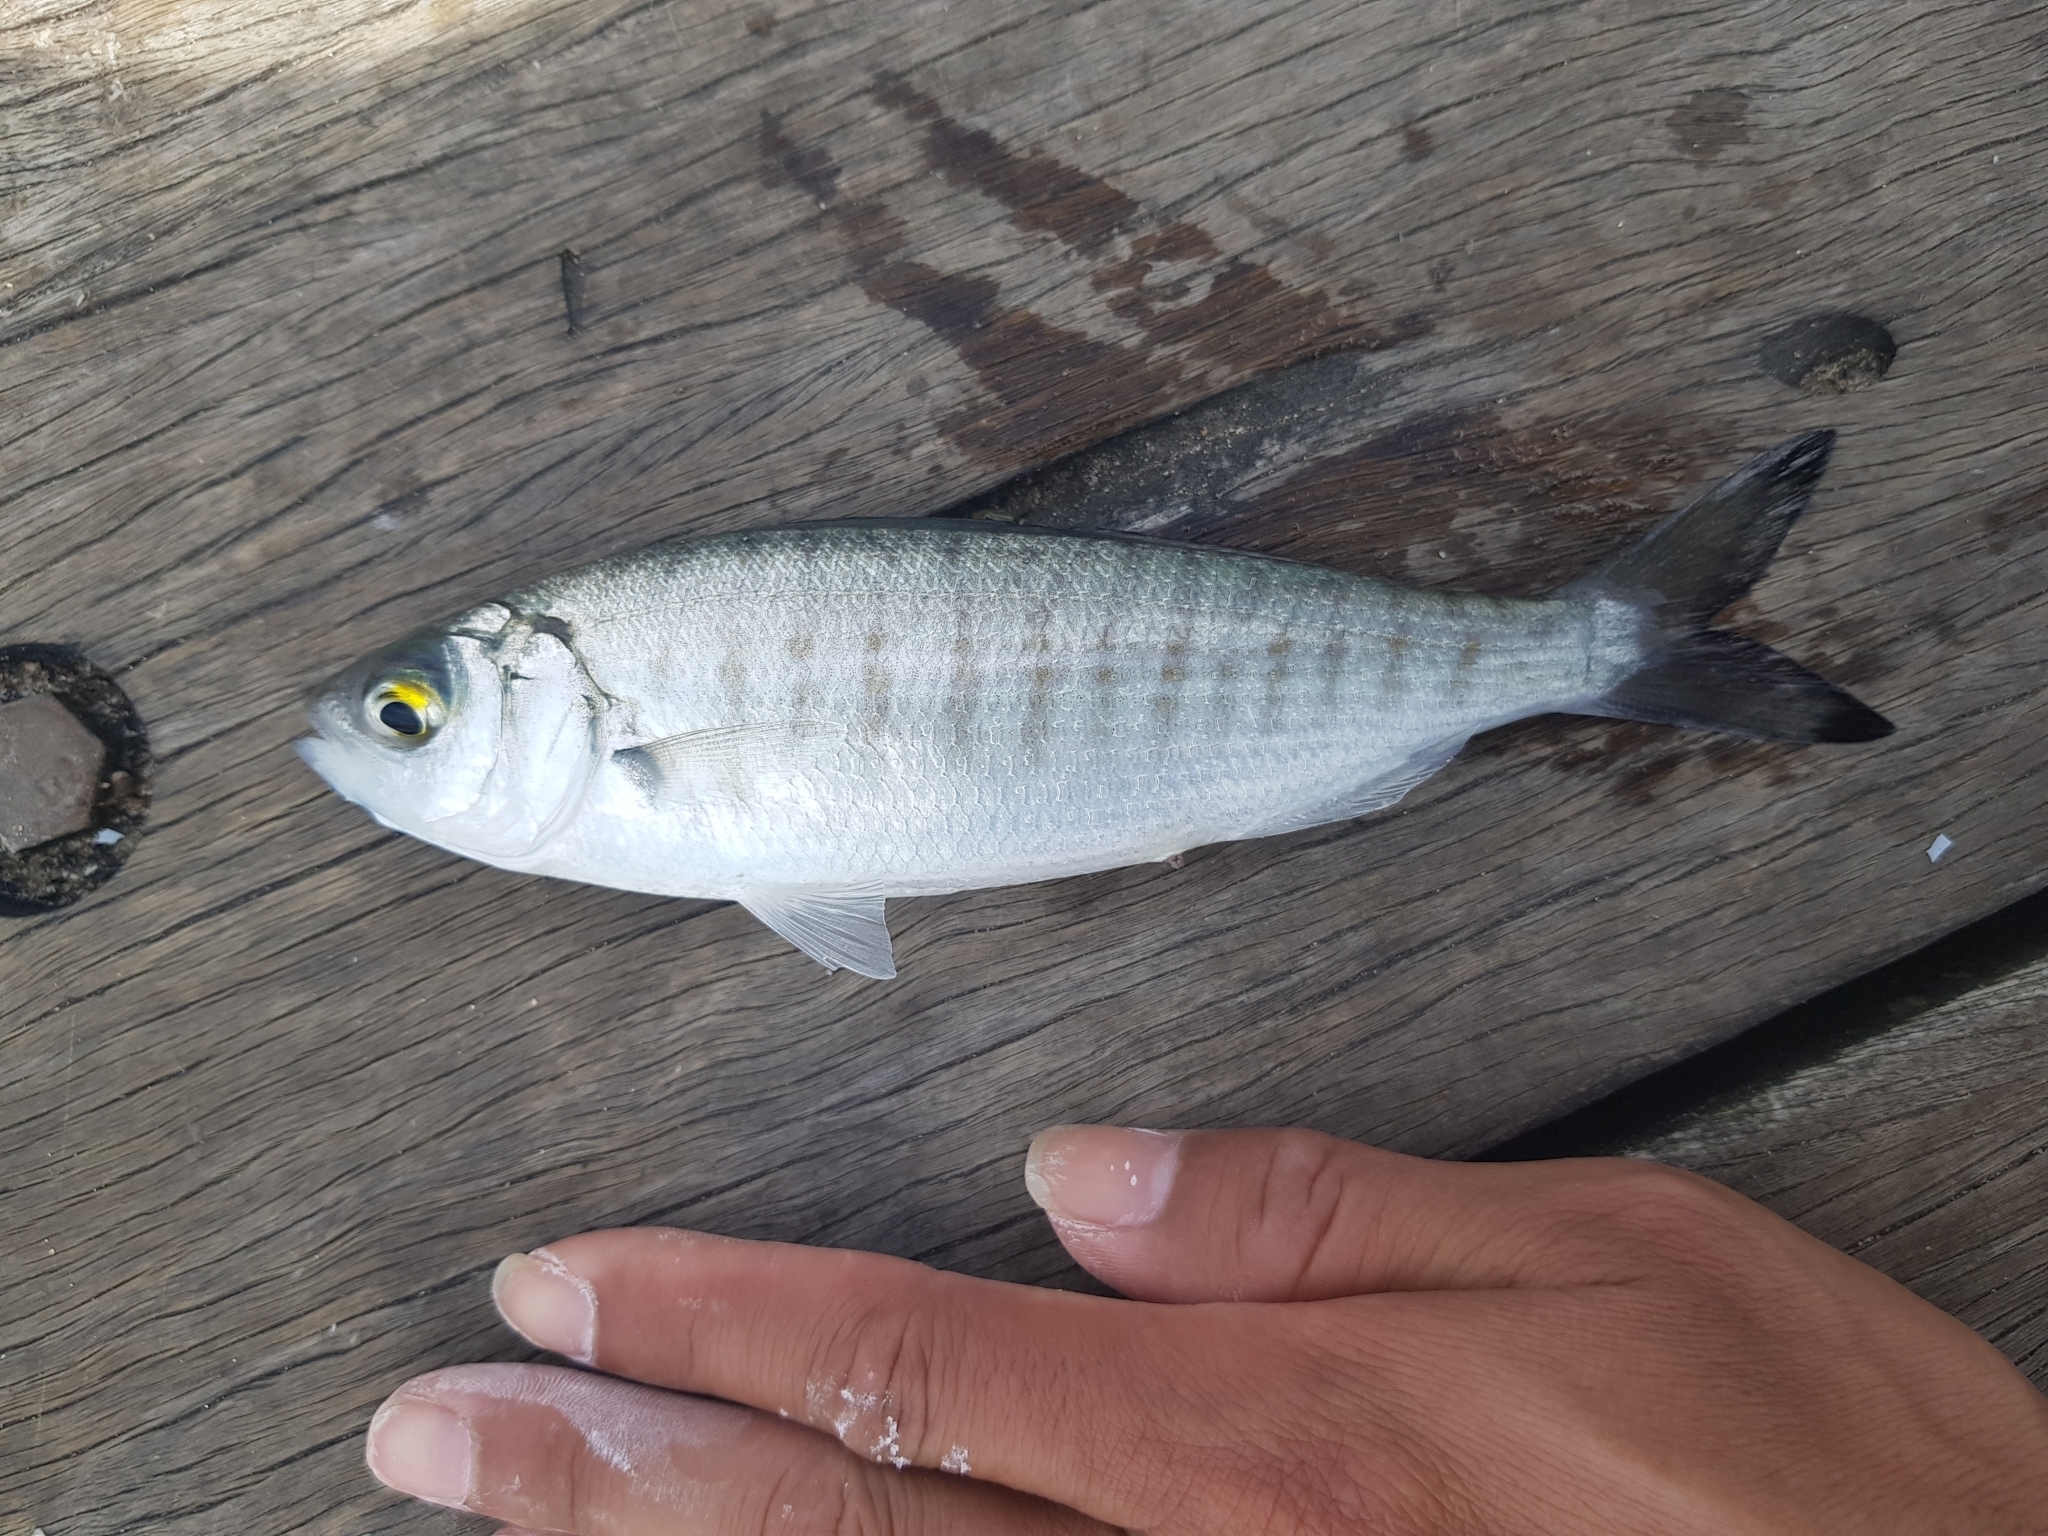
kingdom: Animalia
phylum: Chordata
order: Perciformes
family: Arripidae
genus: Arripis
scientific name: Arripis georgianus
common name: Australian herring
